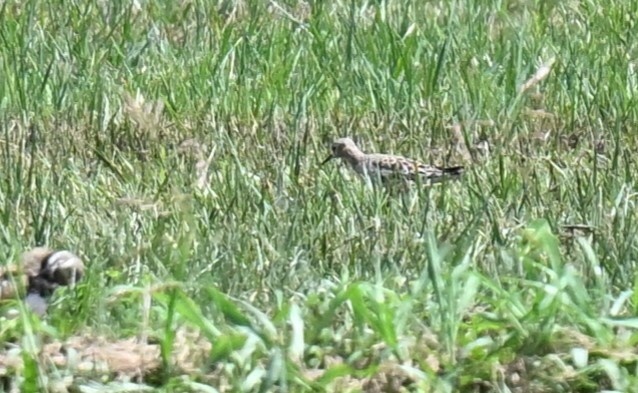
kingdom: Animalia
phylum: Chordata
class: Aves
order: Charadriiformes
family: Scolopacidae
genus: Calidris
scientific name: Calidris subruficollis
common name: Buff-breasted sandpiper
